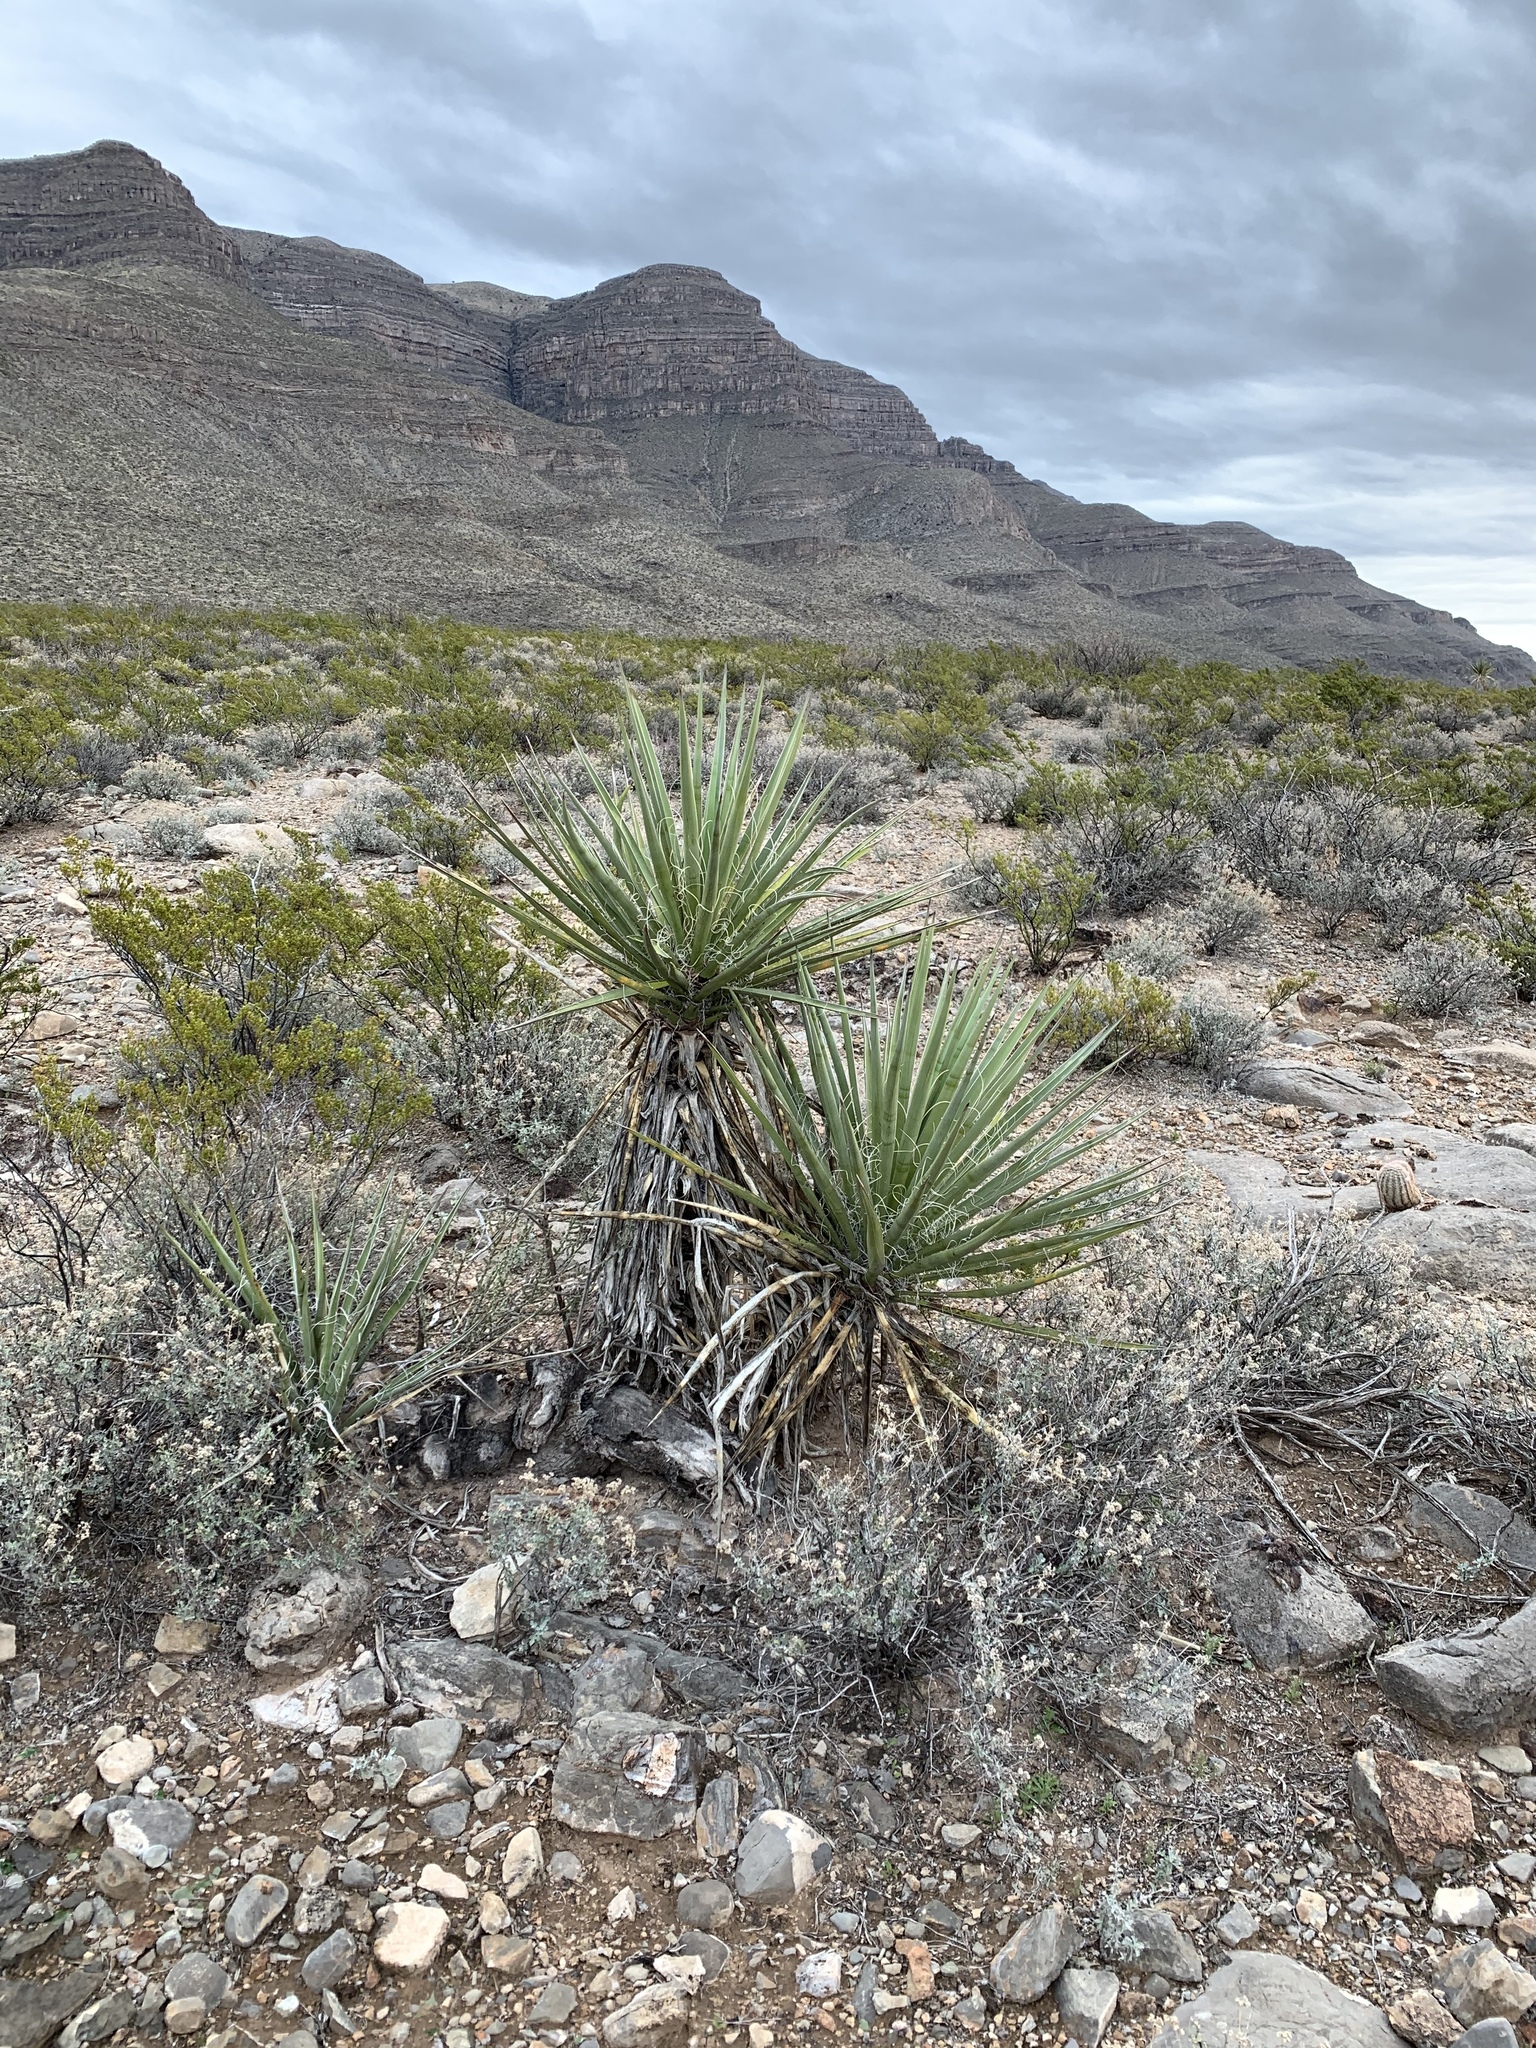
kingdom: Plantae
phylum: Tracheophyta
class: Liliopsida
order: Asparagales
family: Asparagaceae
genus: Yucca
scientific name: Yucca treculiana
